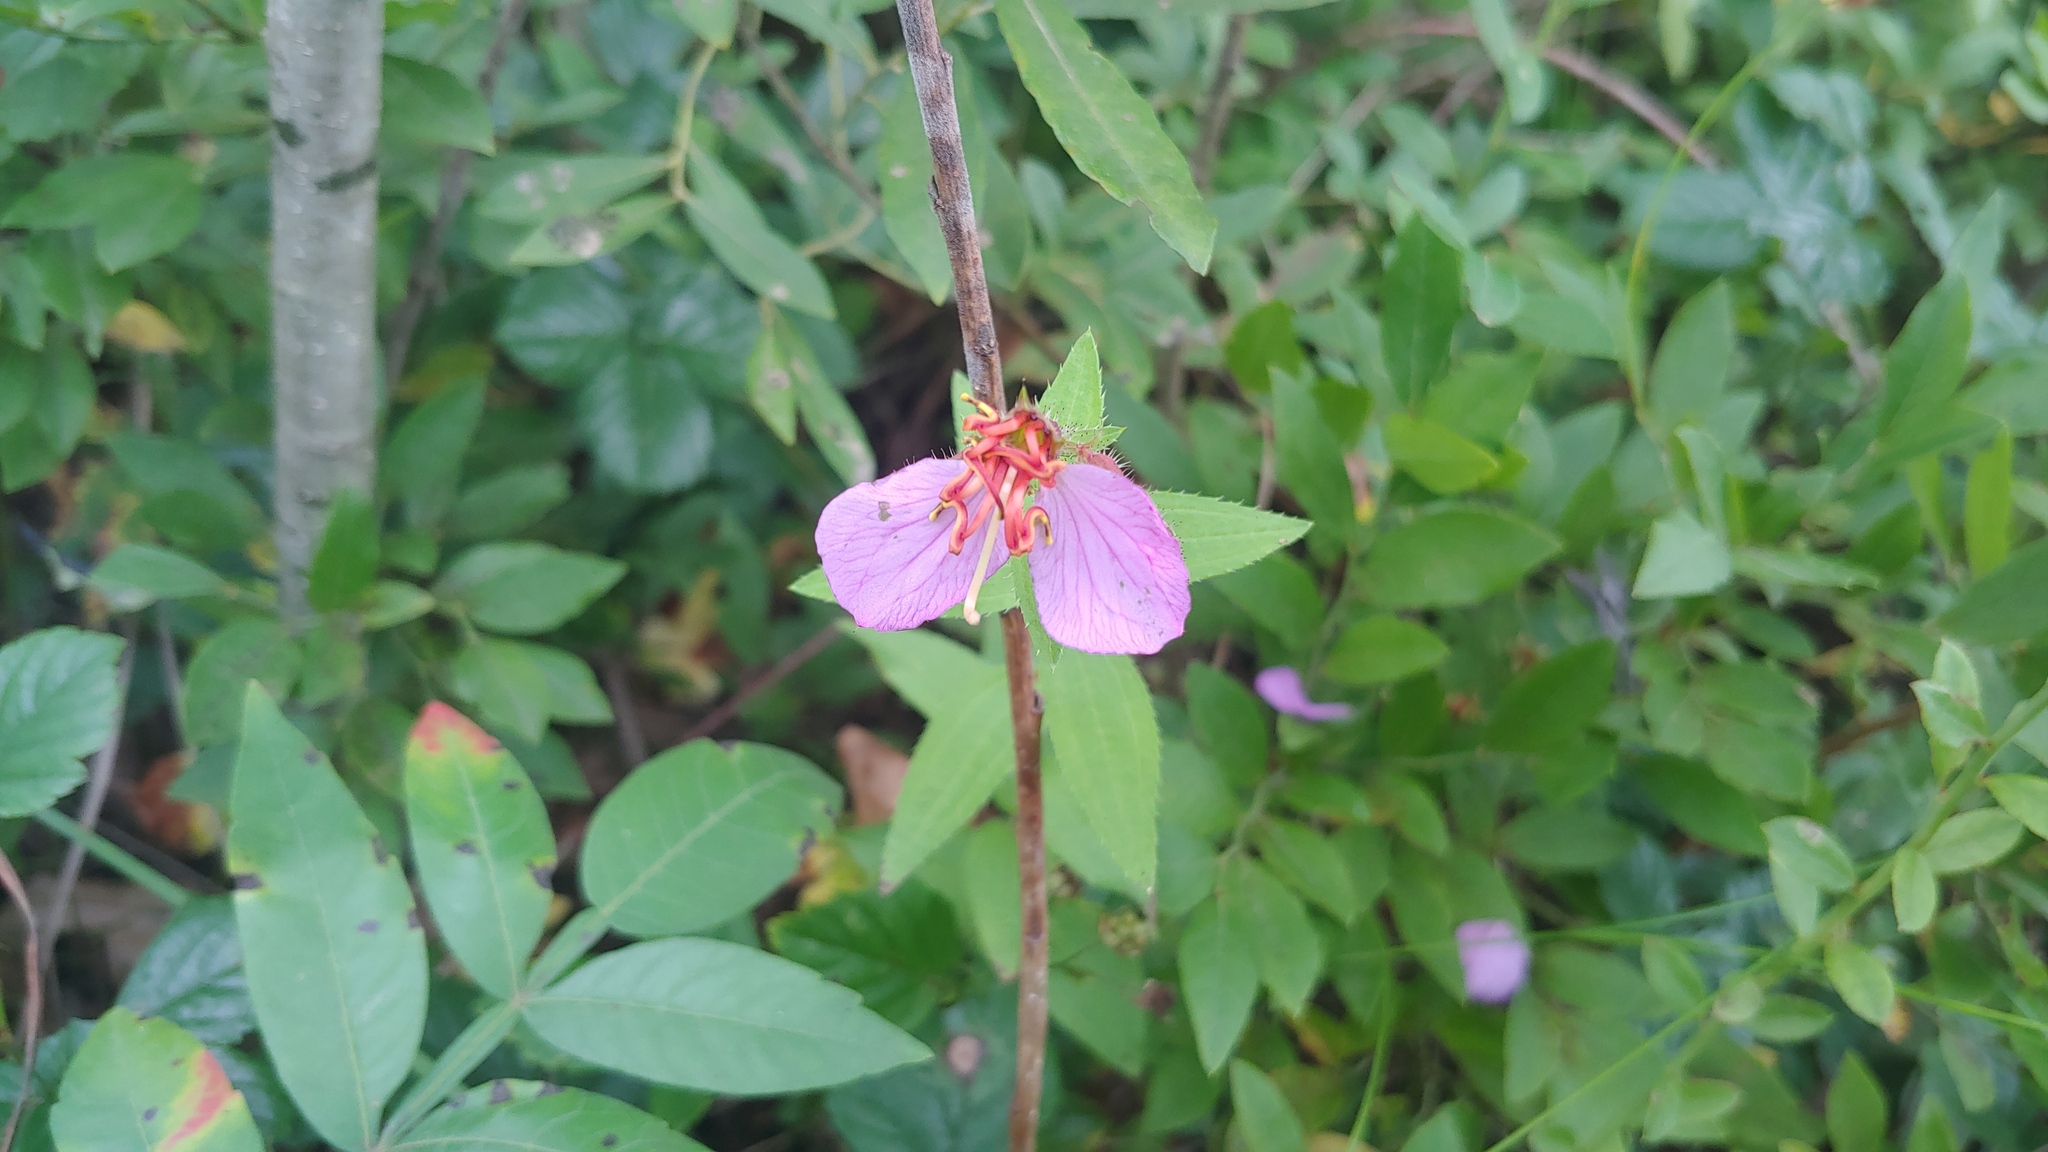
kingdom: Plantae
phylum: Tracheophyta
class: Magnoliopsida
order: Myrtales
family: Melastomataceae
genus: Rhexia
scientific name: Rhexia virginica
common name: Common meadow beauty
